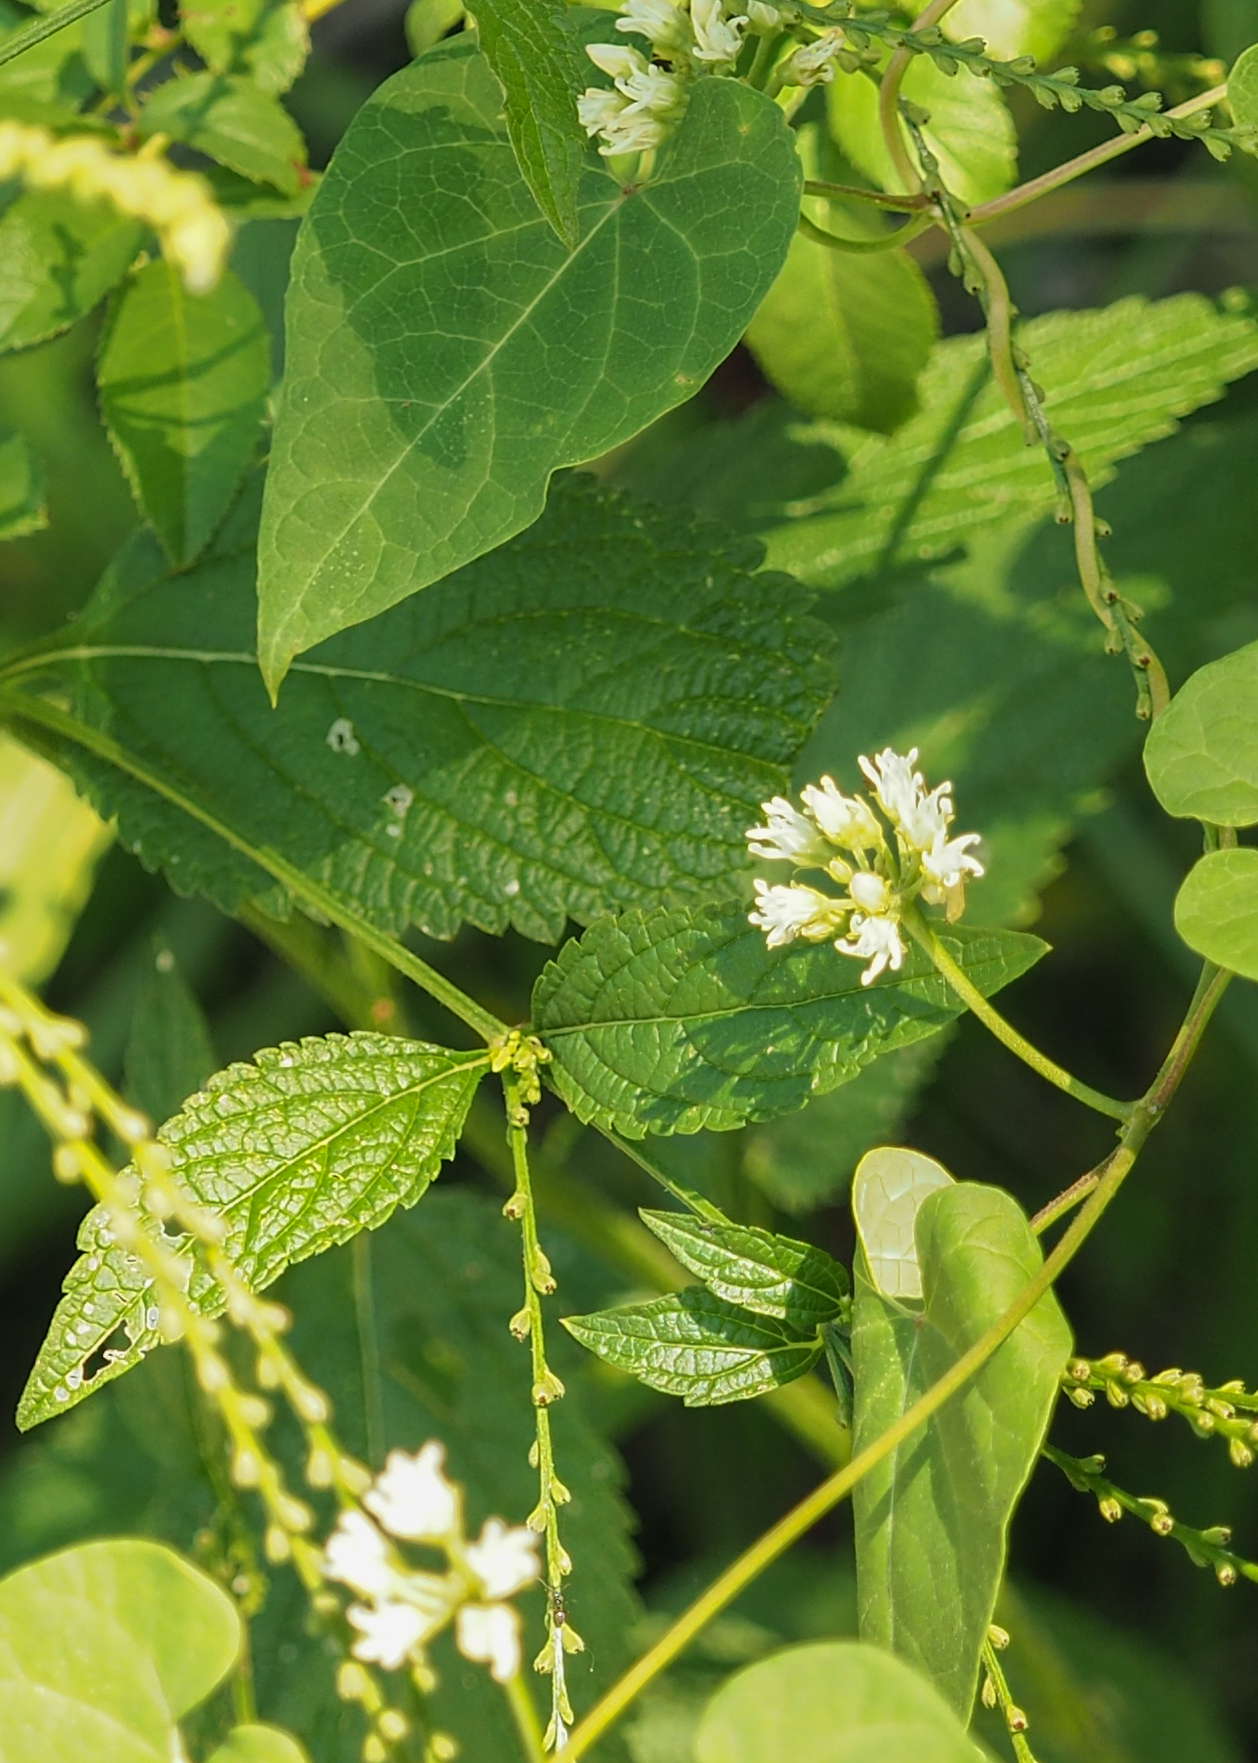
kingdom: Plantae
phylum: Tracheophyta
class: Magnoliopsida
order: Gentianales
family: Apocynaceae
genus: Cynanchum
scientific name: Cynanchum laeve
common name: Sandvine
